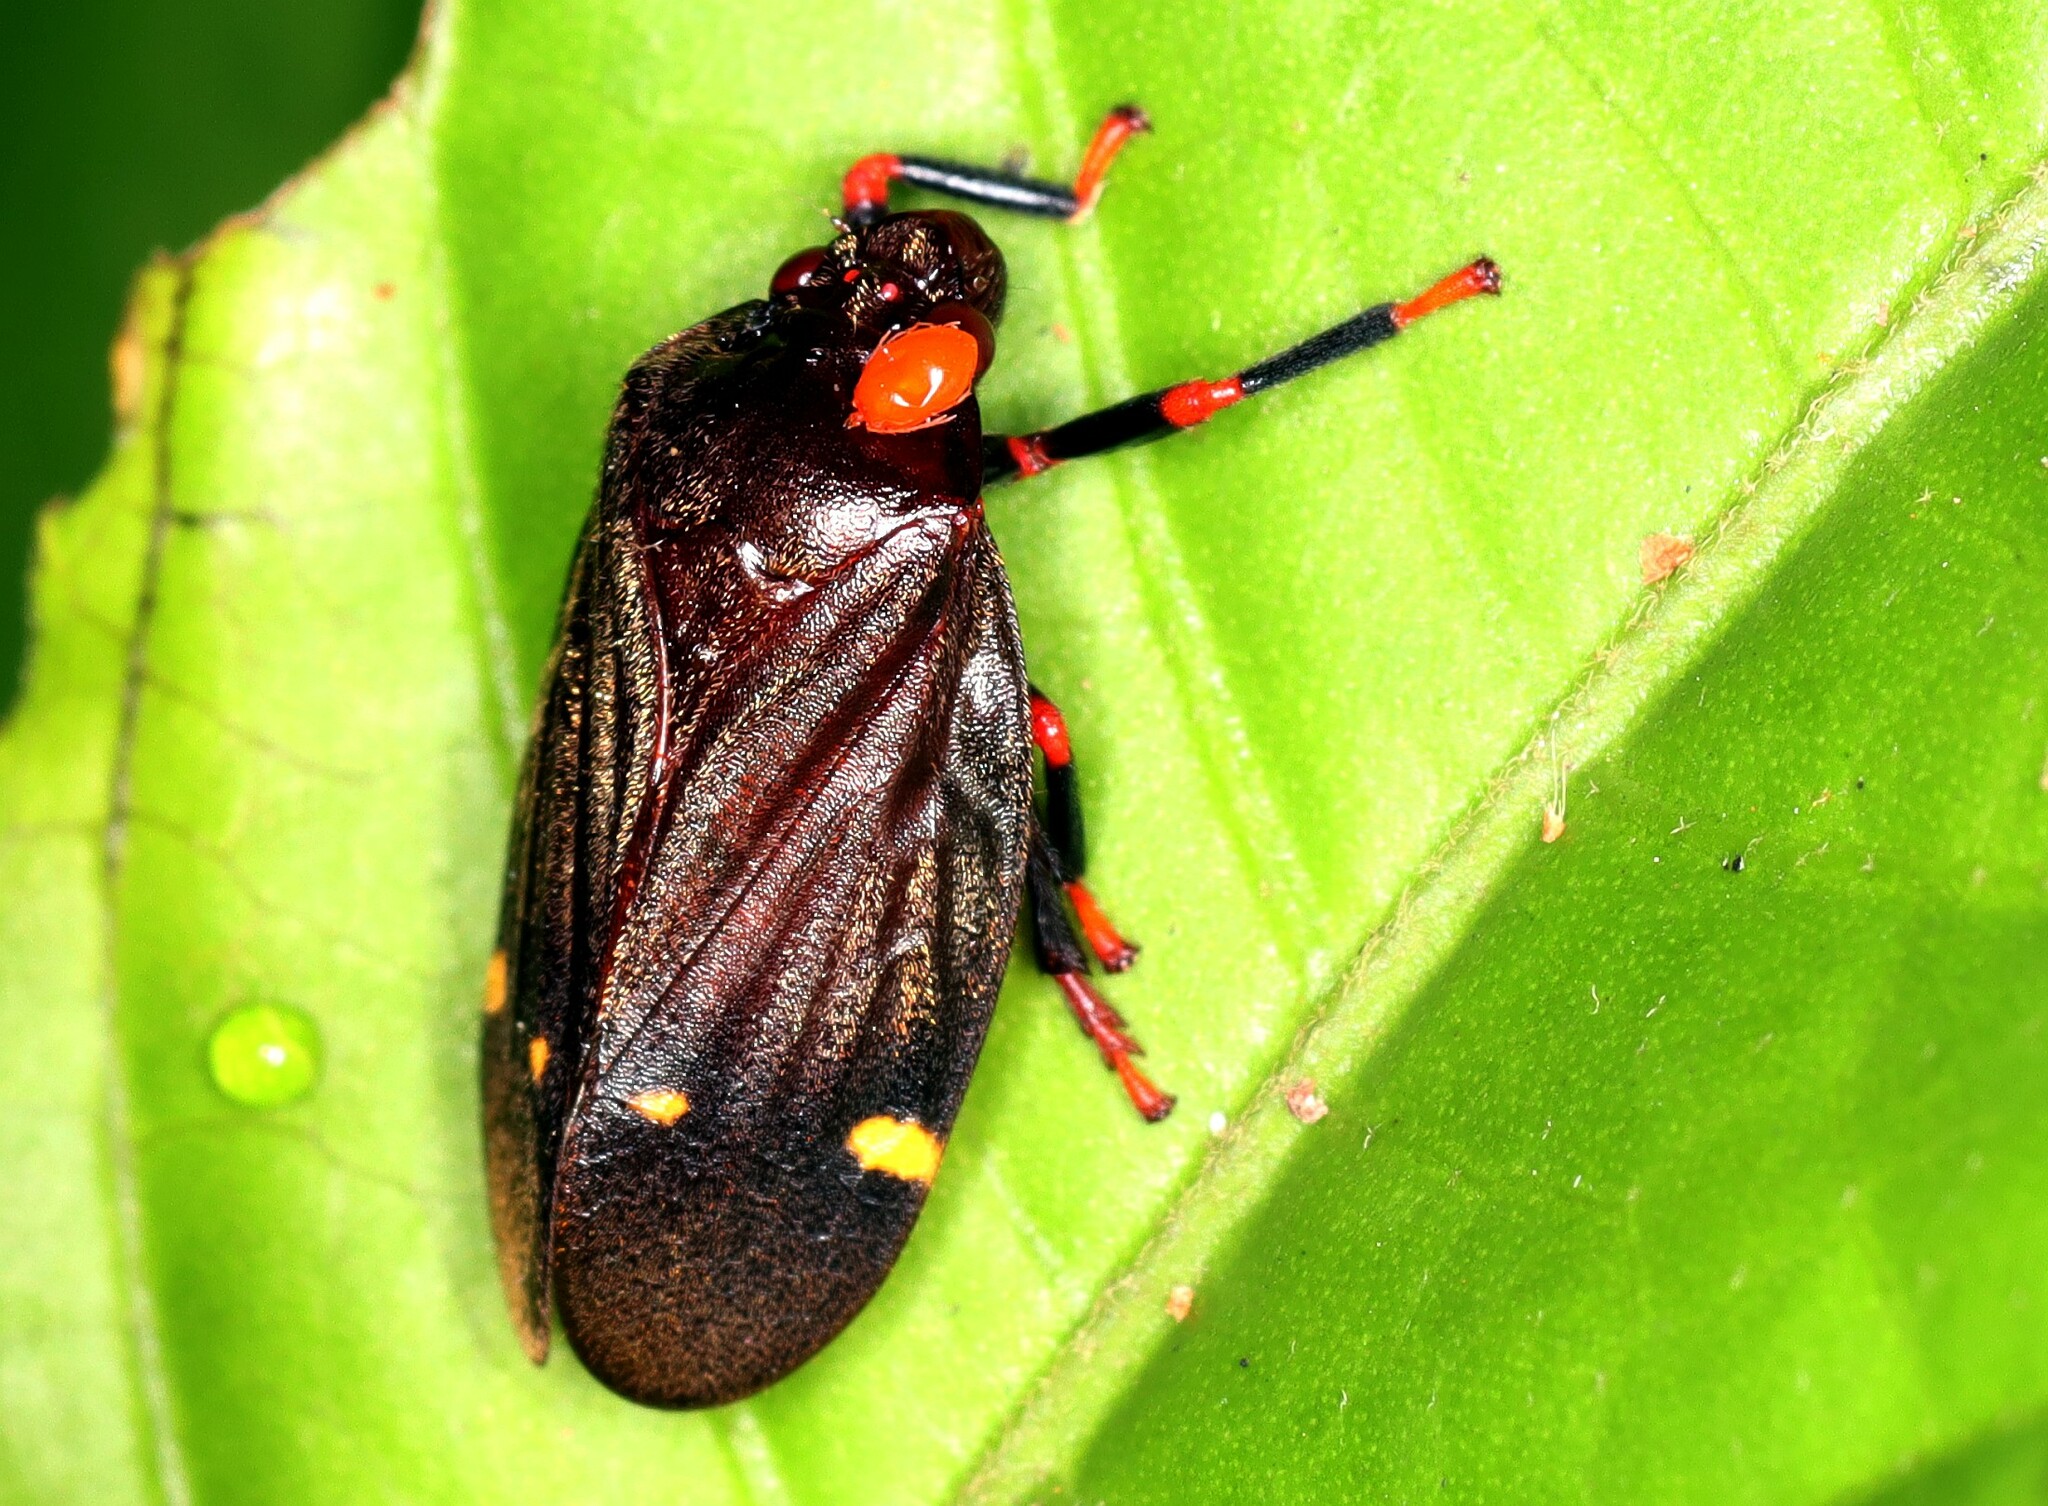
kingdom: Animalia
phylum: Arthropoda
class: Insecta
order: Hemiptera
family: Cercopidae
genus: Maxantonia
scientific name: Maxantonia quadriguttata
